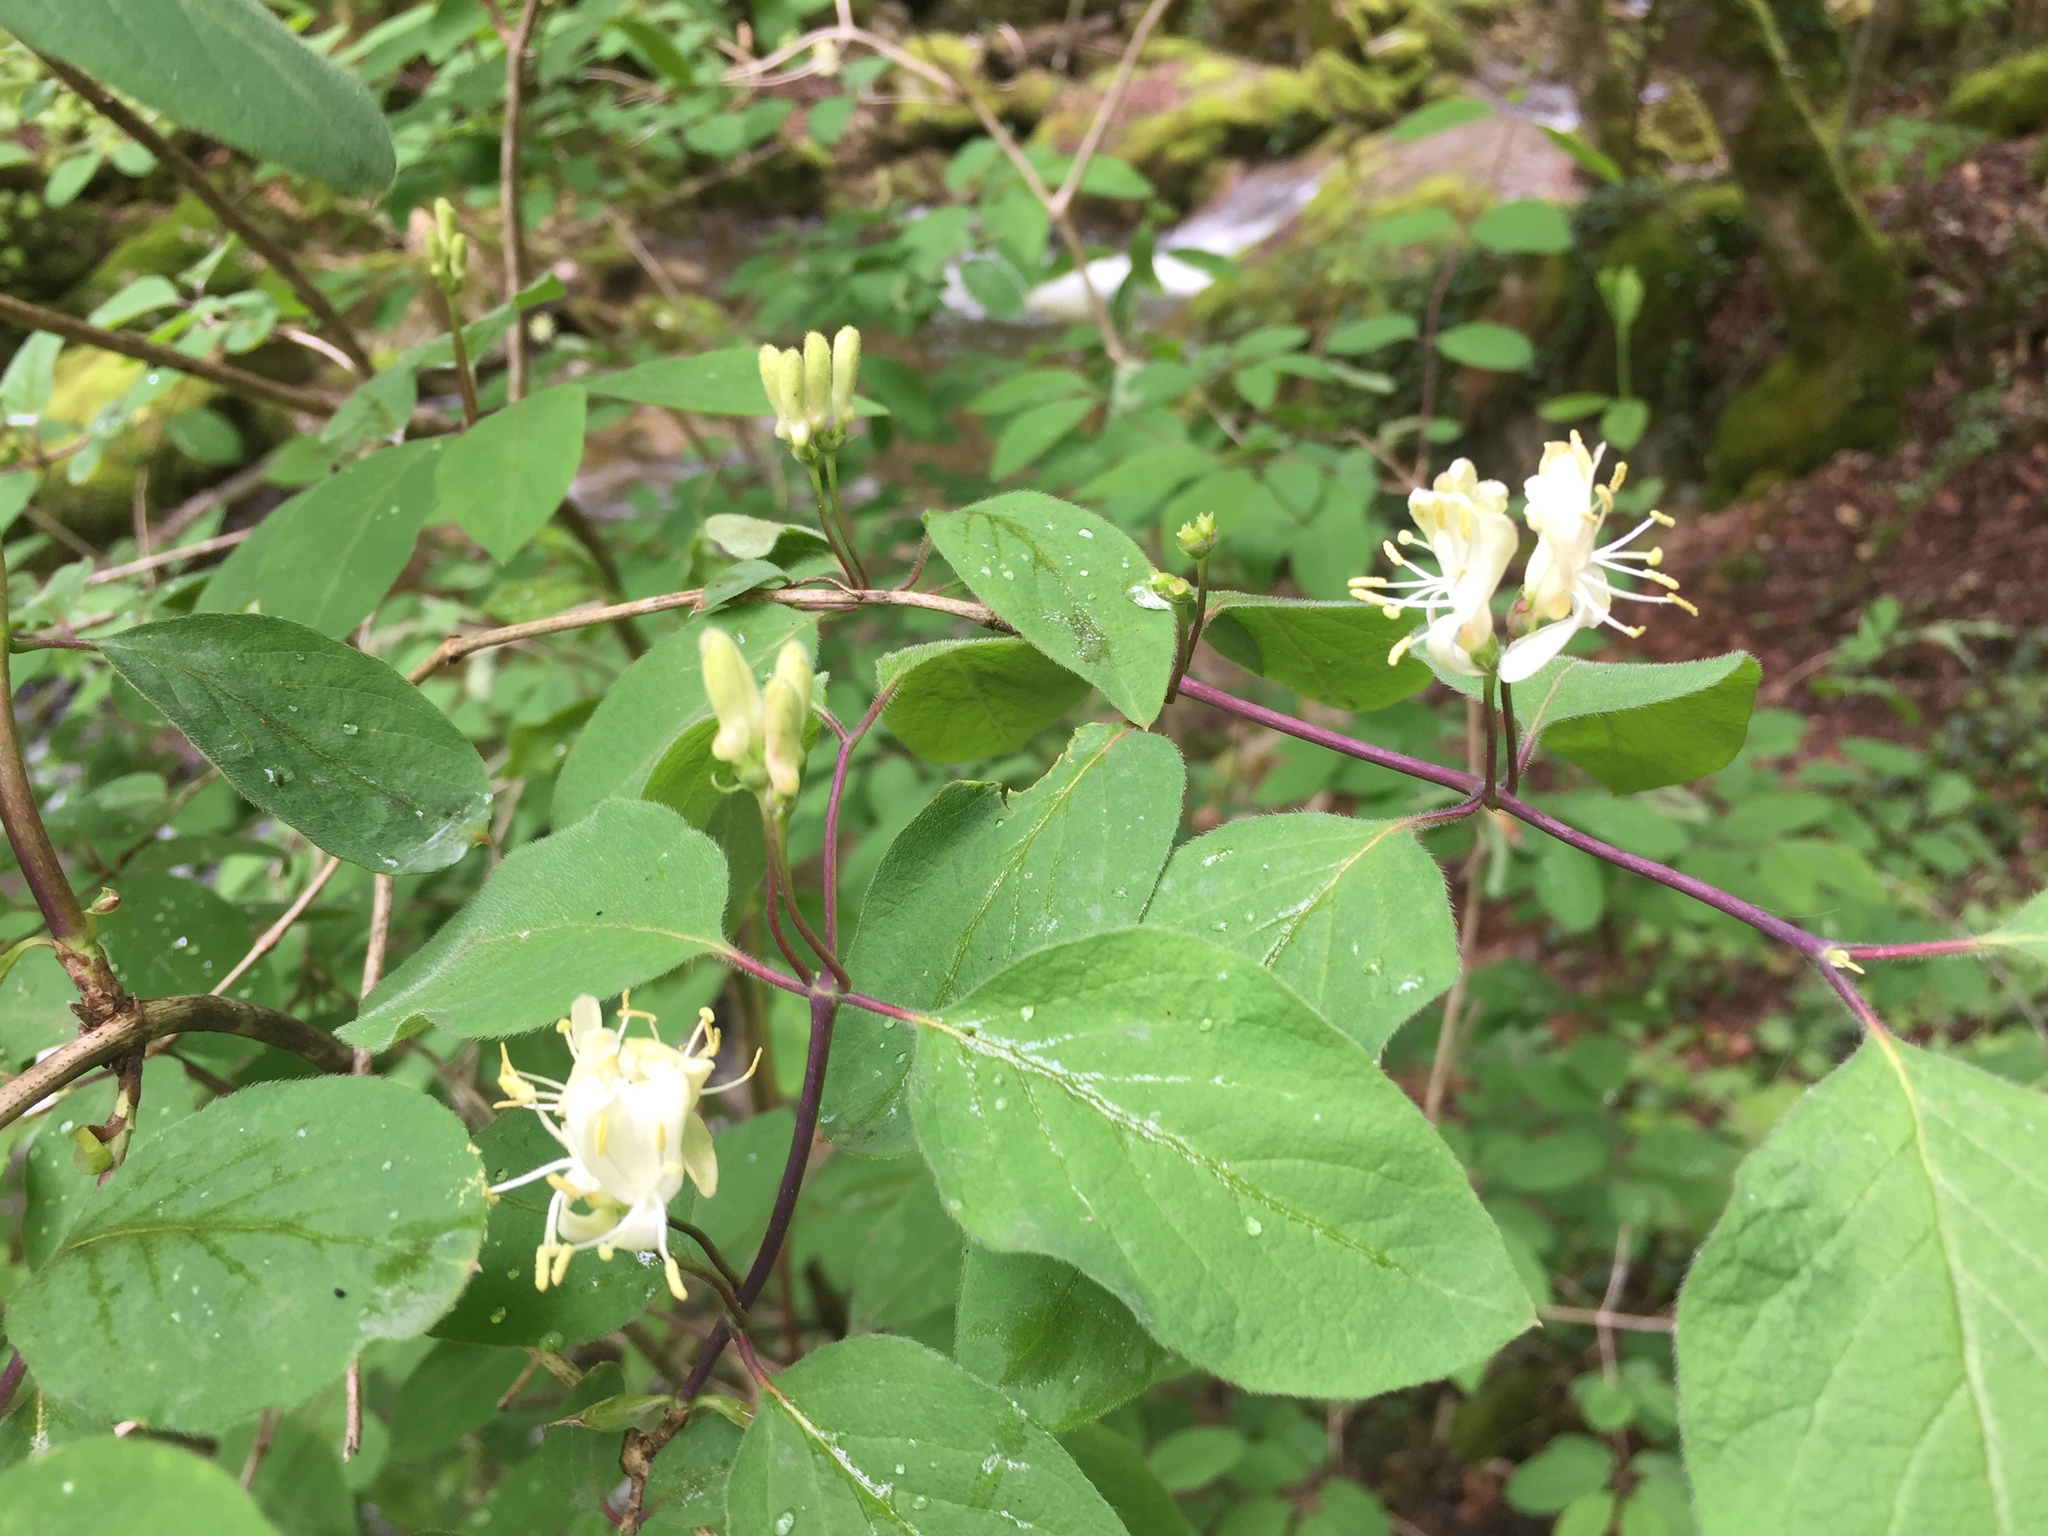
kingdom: Plantae
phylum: Tracheophyta
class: Magnoliopsida
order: Dipsacales
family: Caprifoliaceae
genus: Lonicera
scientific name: Lonicera xylosteum
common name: Fly honeysuckle
